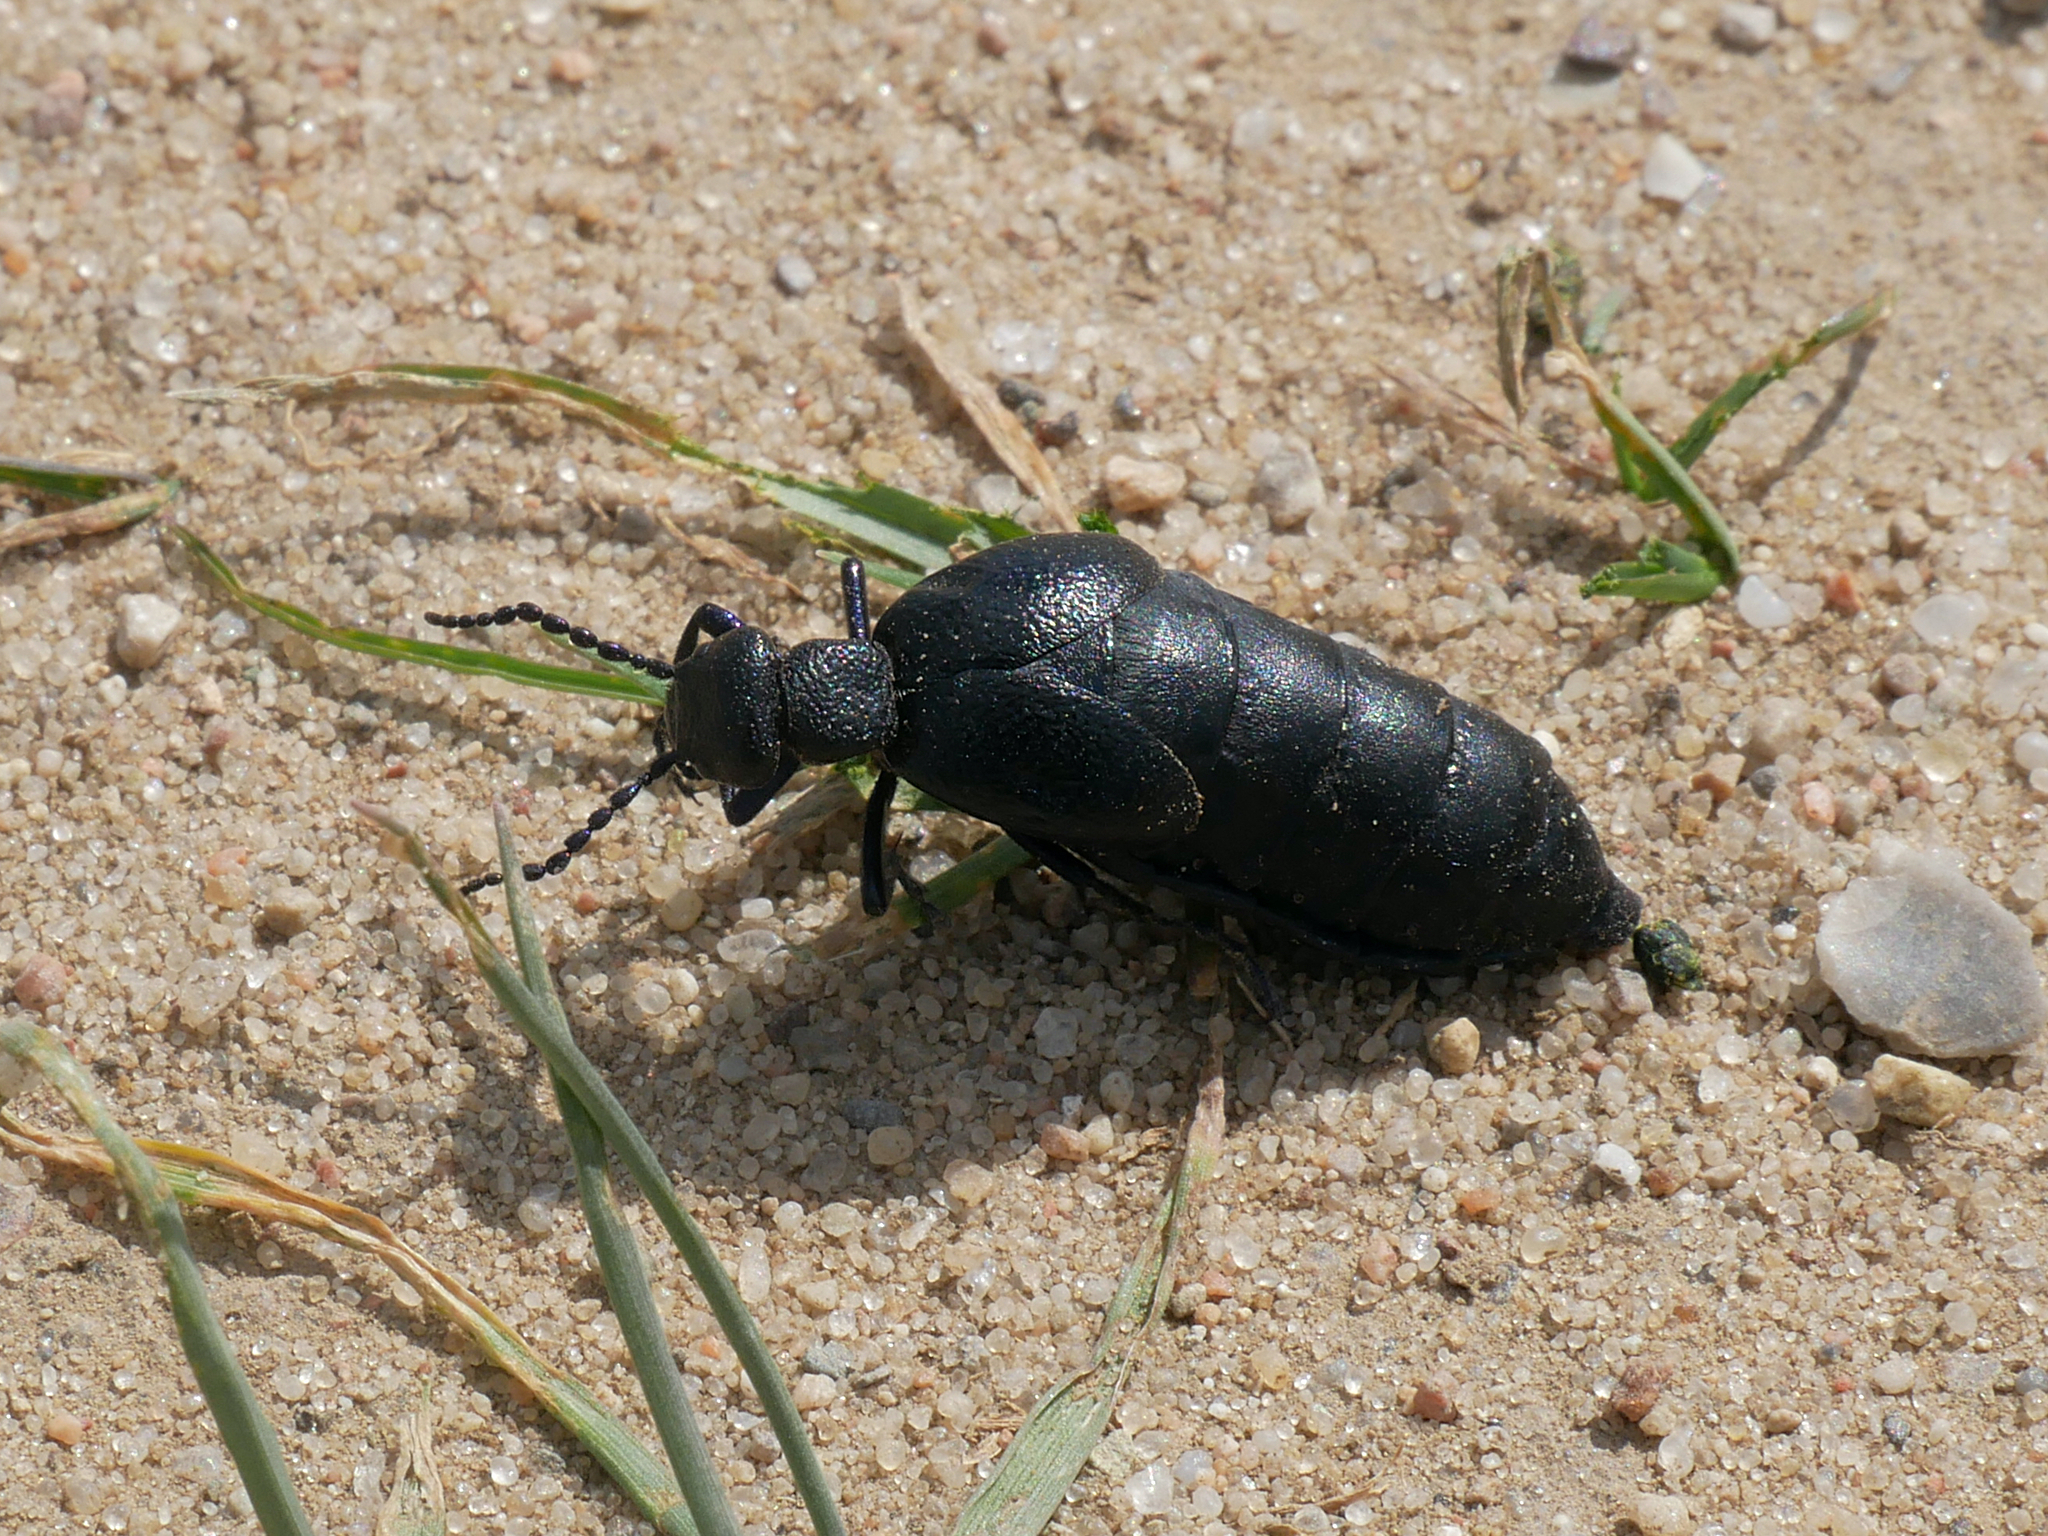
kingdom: Animalia
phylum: Arthropoda
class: Insecta
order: Coleoptera
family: Meloidae
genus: Meloe
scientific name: Meloe proscarabaeus
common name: Black oil-beetle
